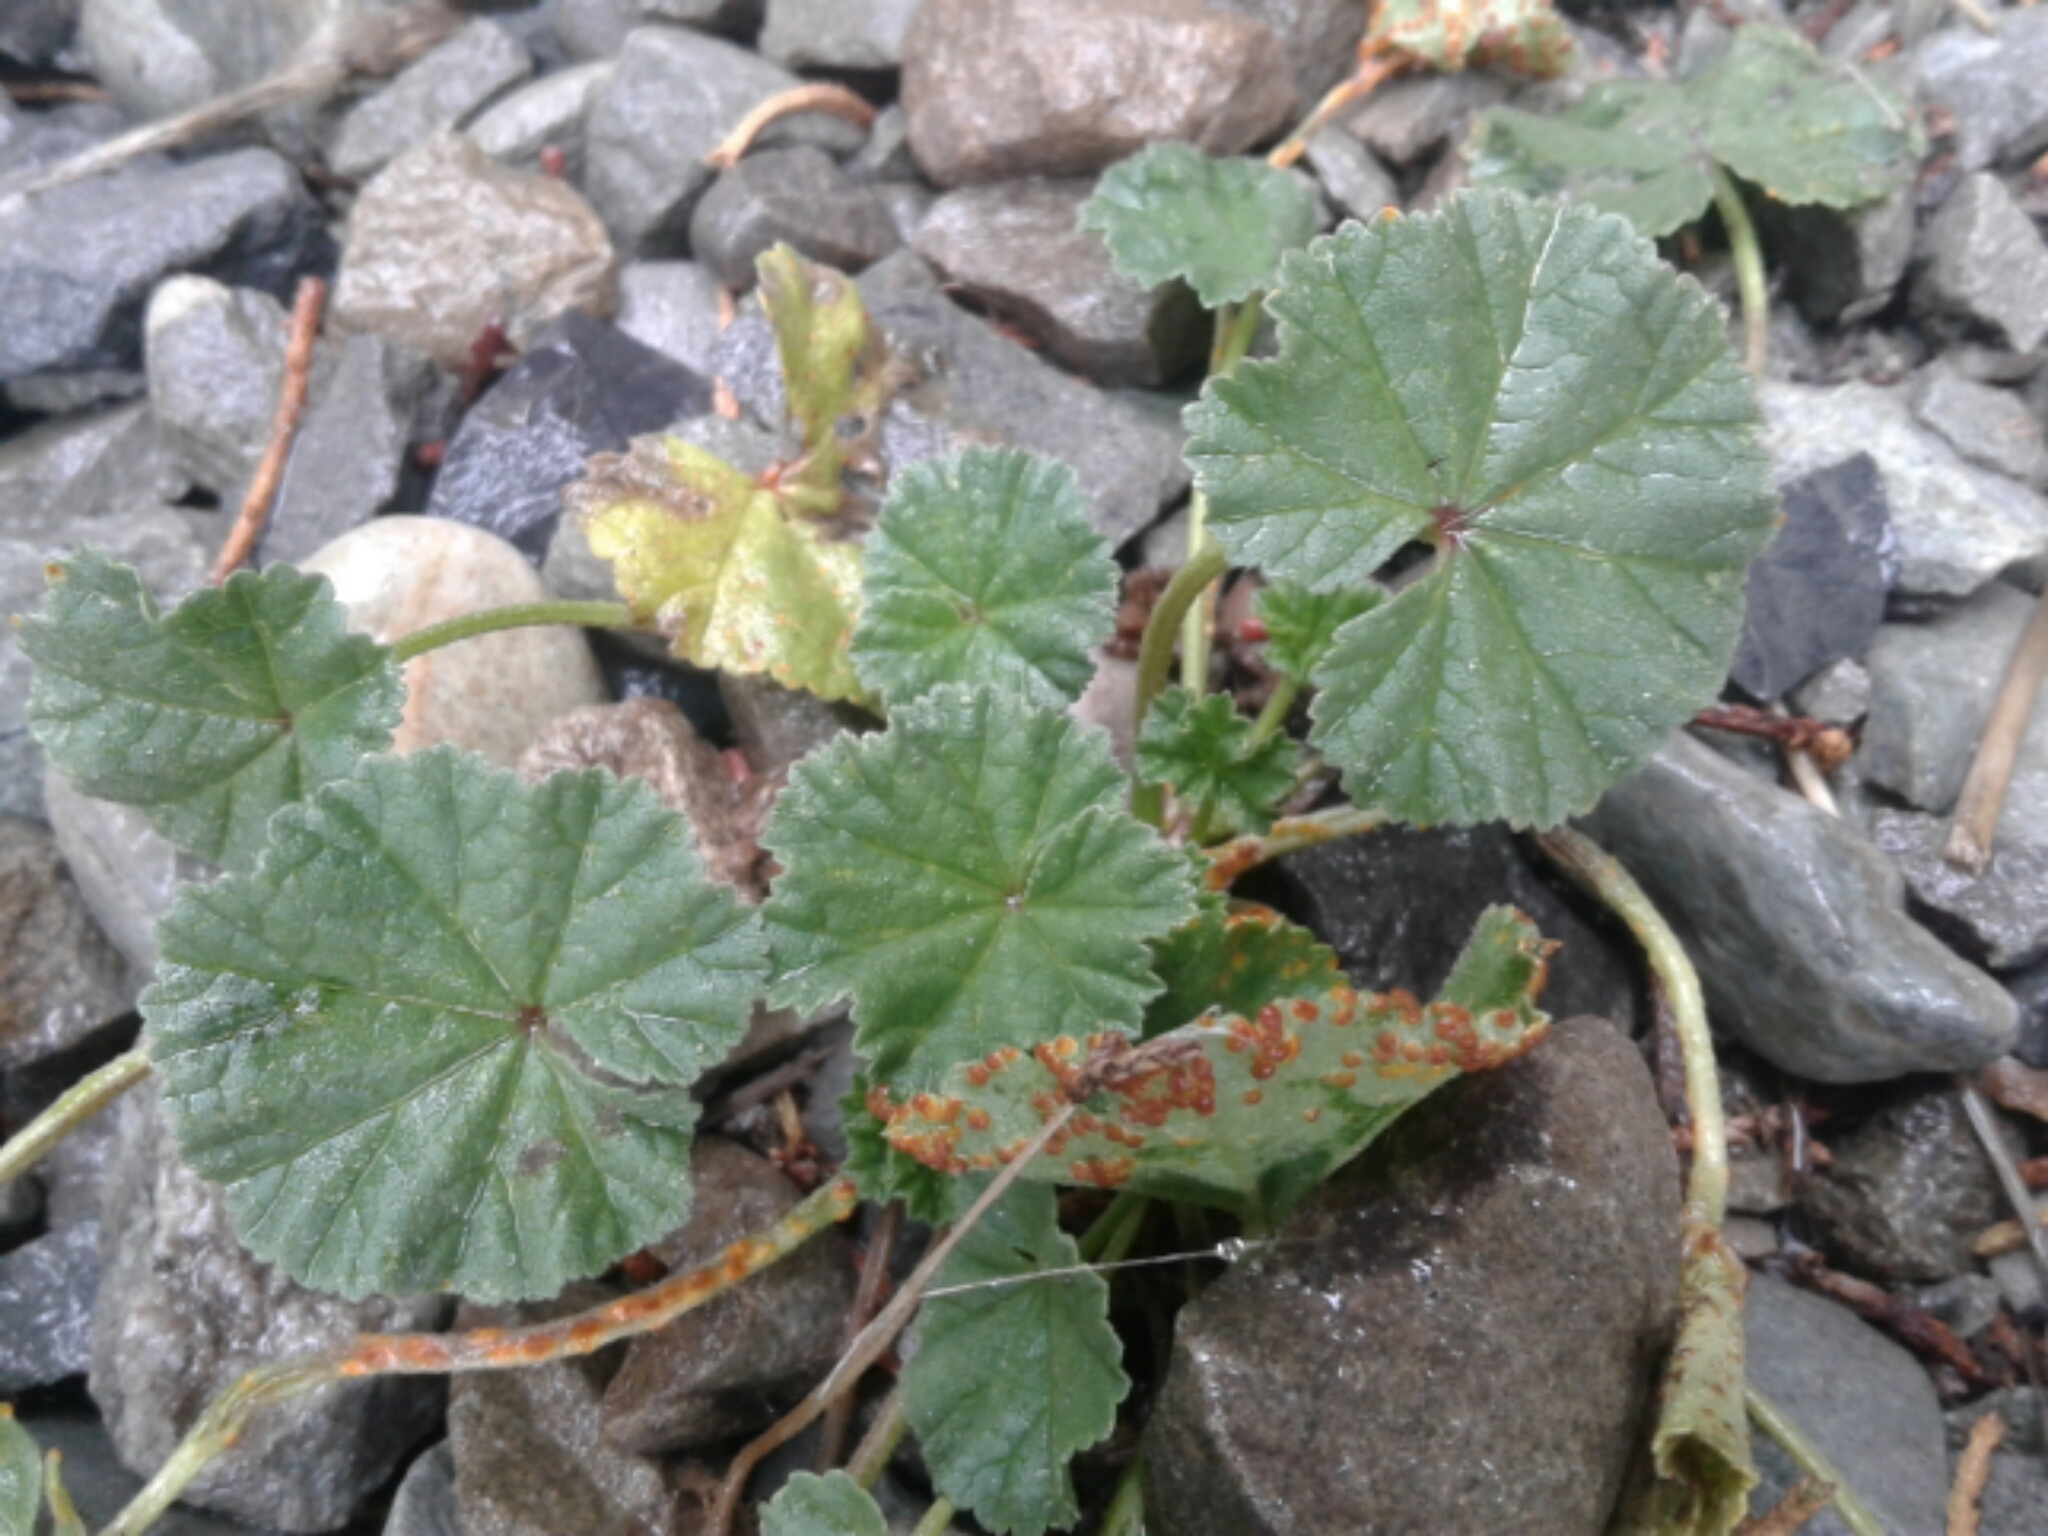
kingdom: Plantae
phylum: Tracheophyta
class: Magnoliopsida
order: Malvales
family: Malvaceae
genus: Malva
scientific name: Malva sylvestris
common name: Common mallow
